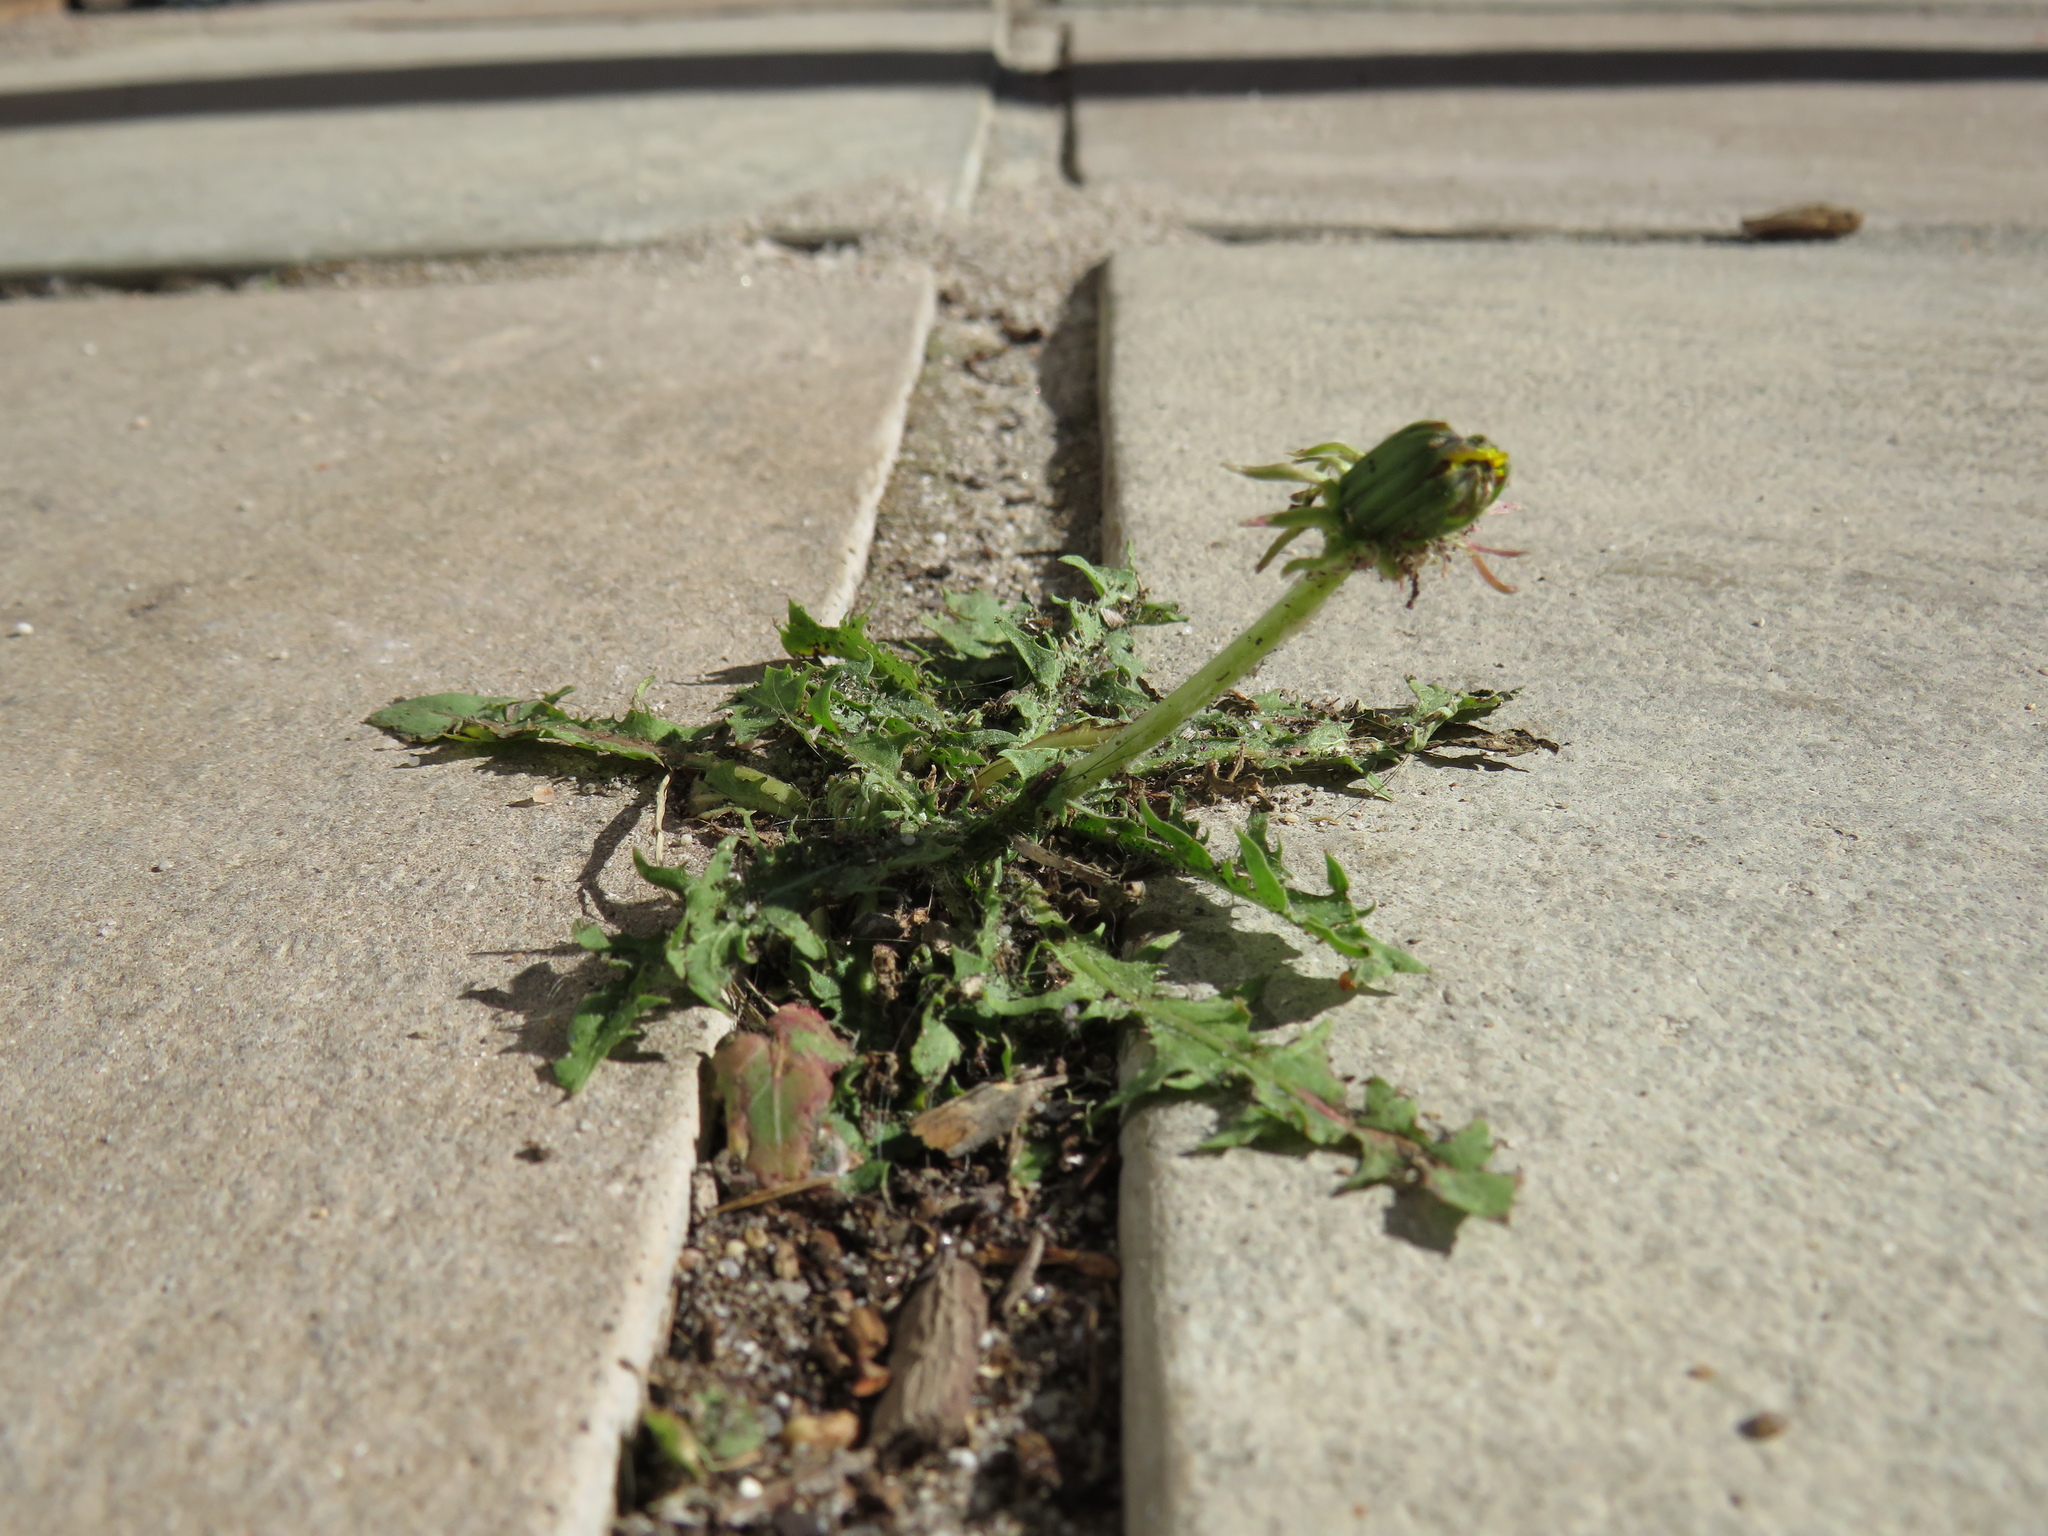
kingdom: Plantae
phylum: Tracheophyta
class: Magnoliopsida
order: Asterales
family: Asteraceae
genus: Taraxacum
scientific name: Taraxacum officinale
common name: Common dandelion
